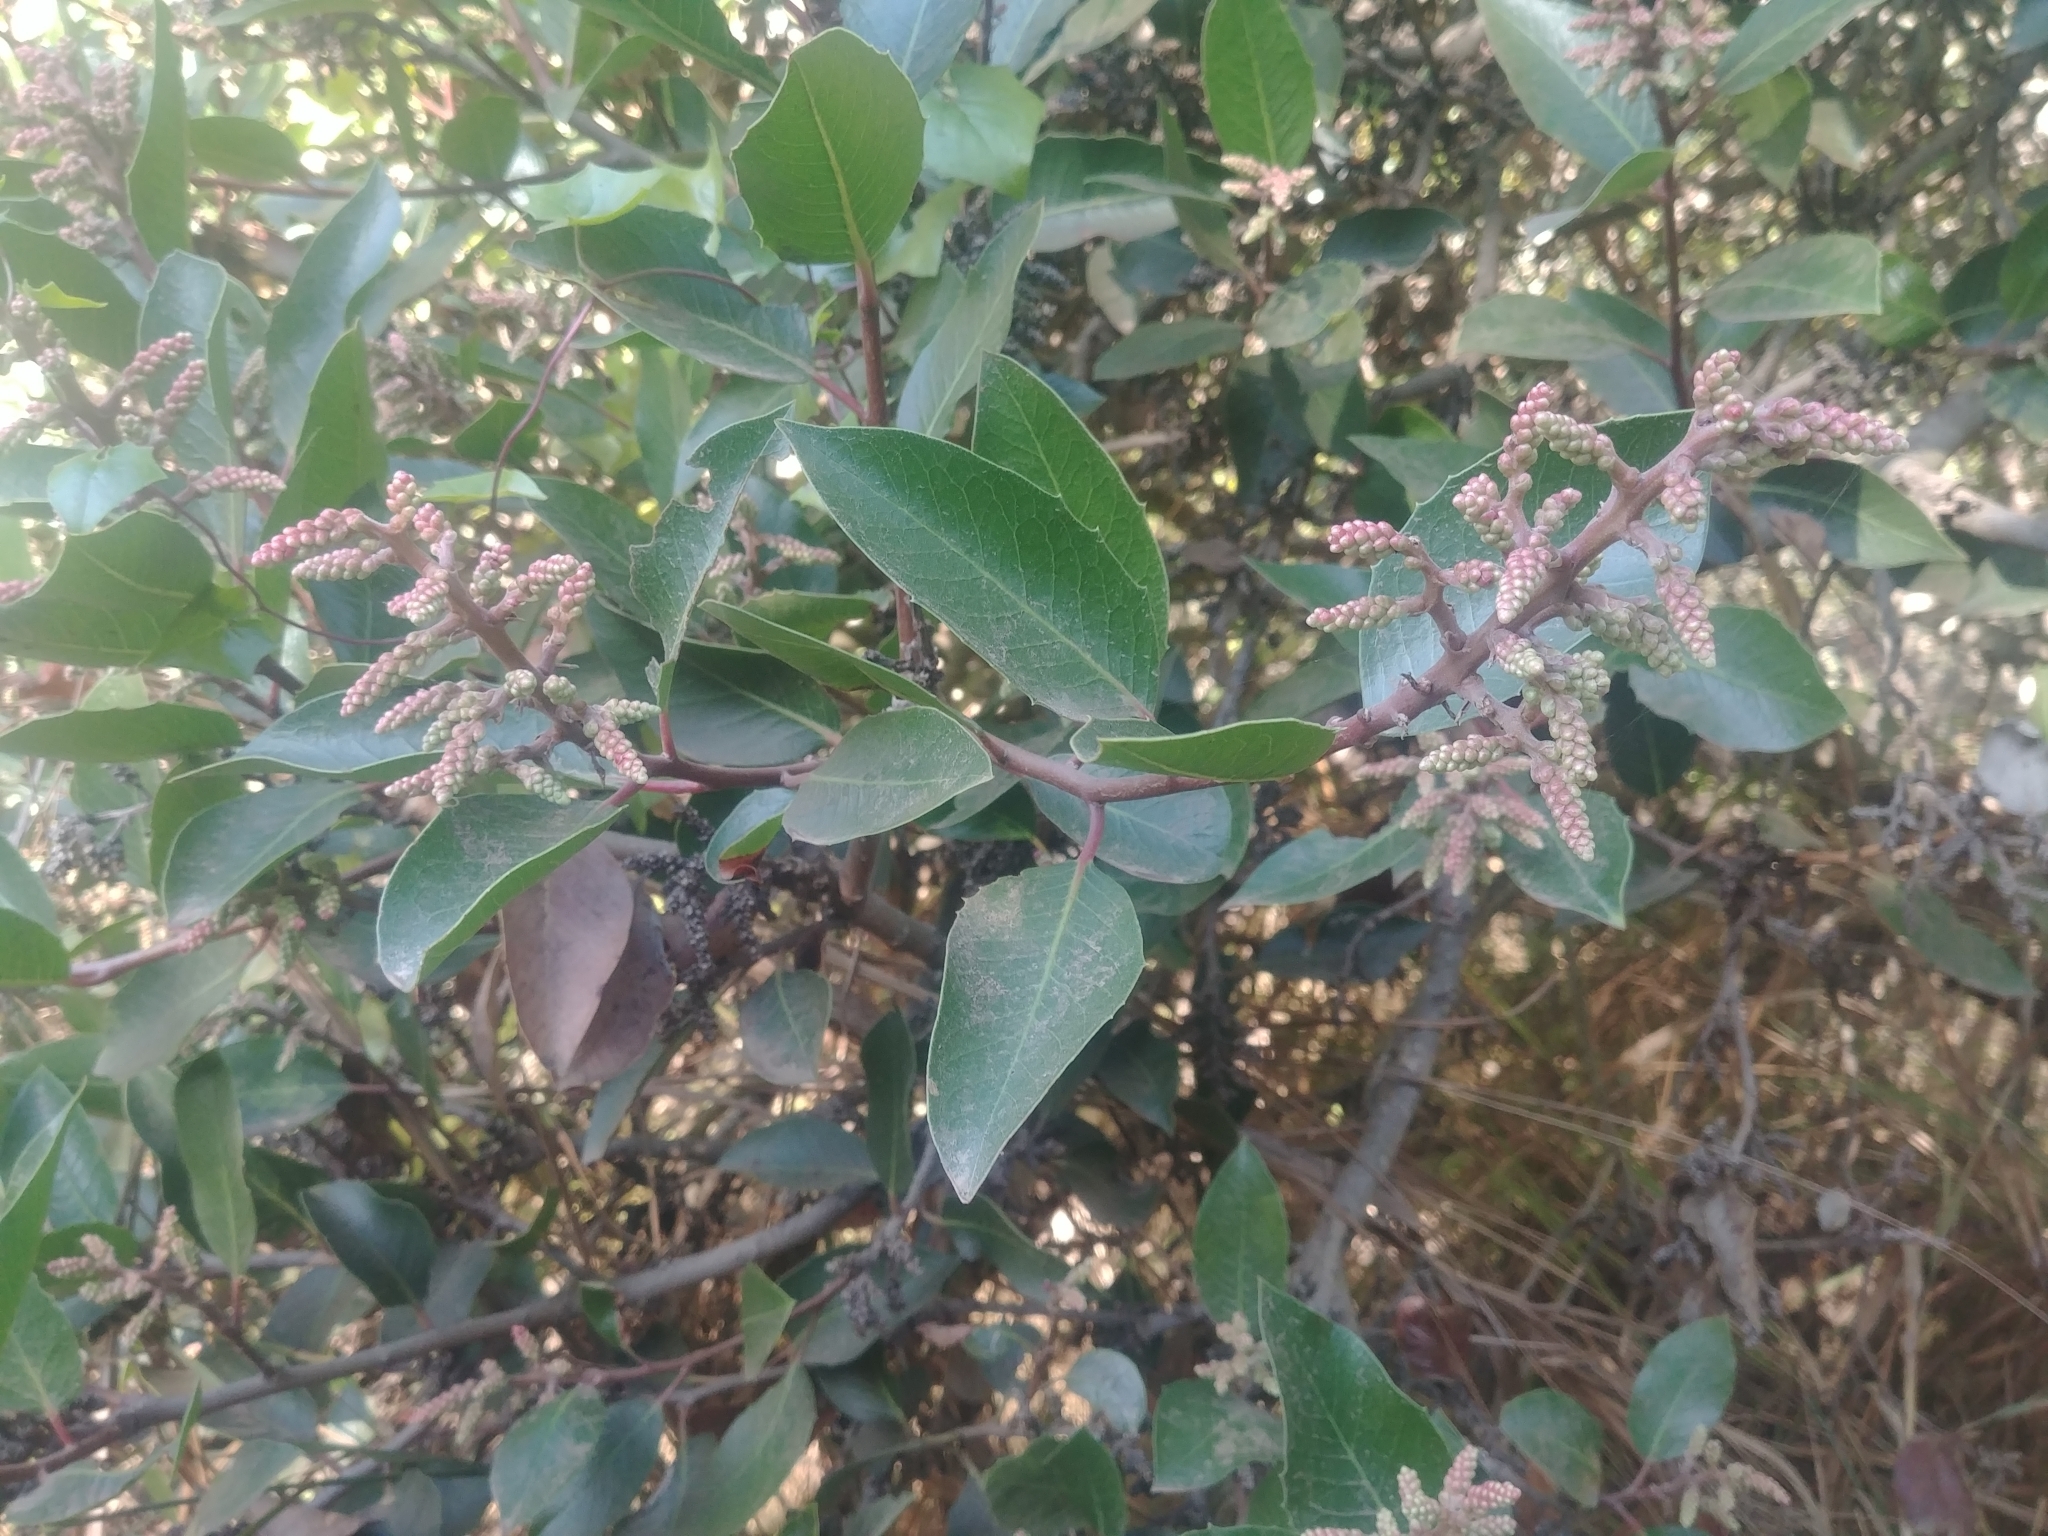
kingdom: Plantae
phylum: Tracheophyta
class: Magnoliopsida
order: Sapindales
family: Anacardiaceae
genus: Rhus
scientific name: Rhus ovata
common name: Sugar sumac
